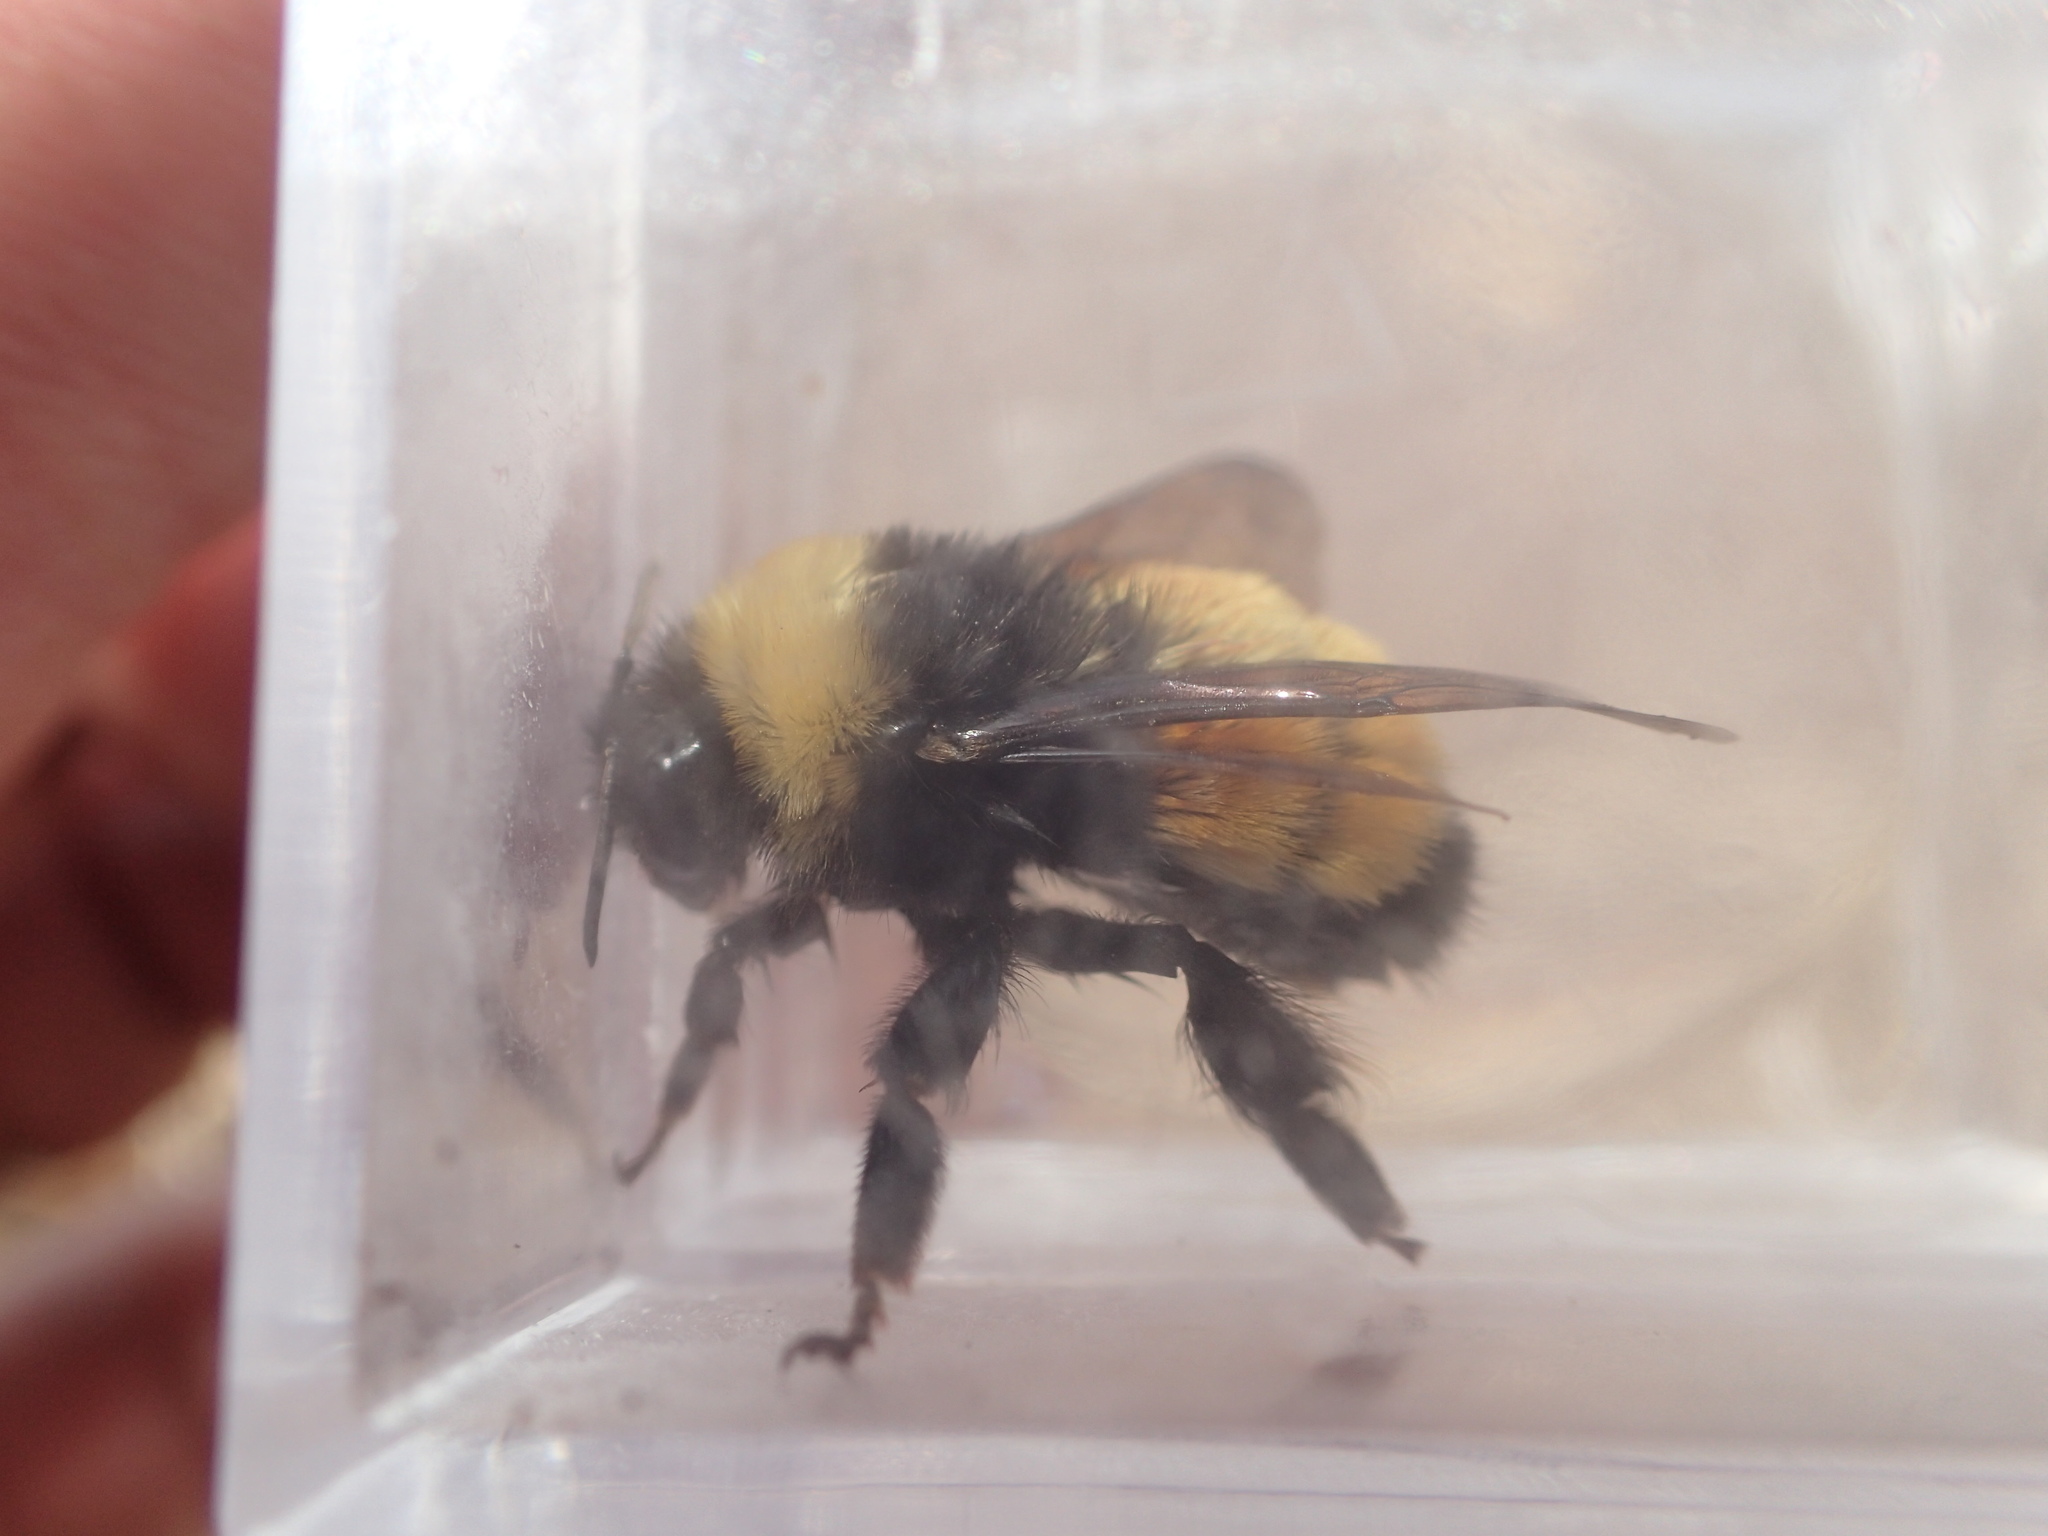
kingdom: Animalia
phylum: Arthropoda
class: Insecta
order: Hymenoptera
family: Apidae
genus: Bombus
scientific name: Bombus terricola
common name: Yellow-banded bumble bee
